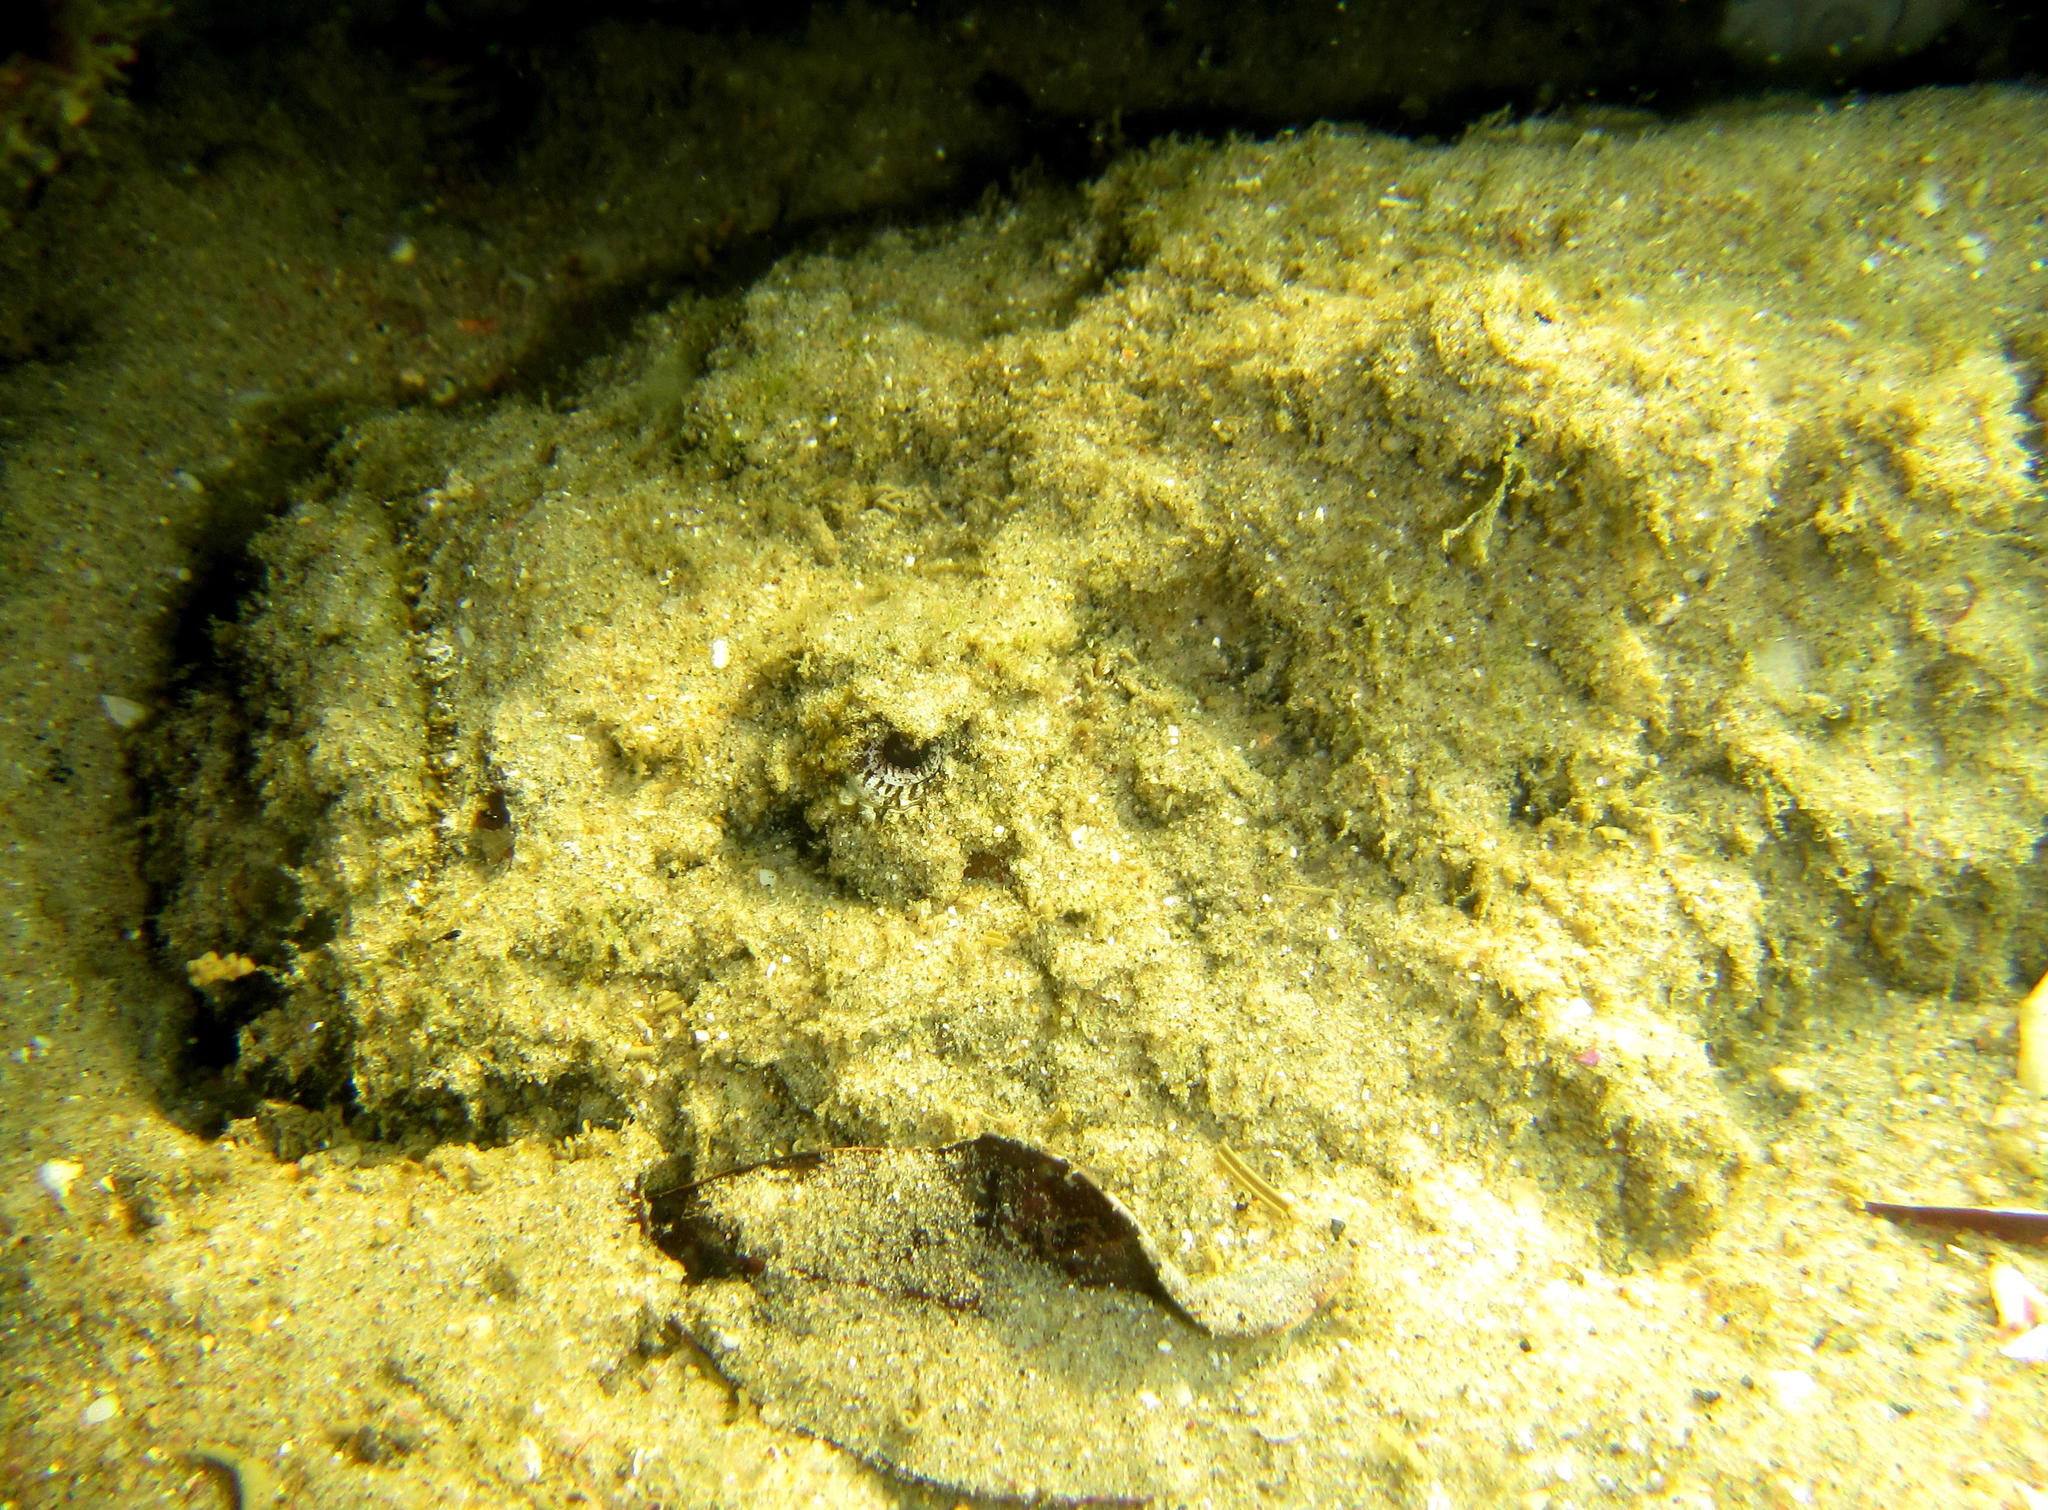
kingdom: Animalia
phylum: Chordata
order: Scorpaeniformes
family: Synanceiidae
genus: Synanceia
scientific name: Synanceia verrucosa
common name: Stonefish
